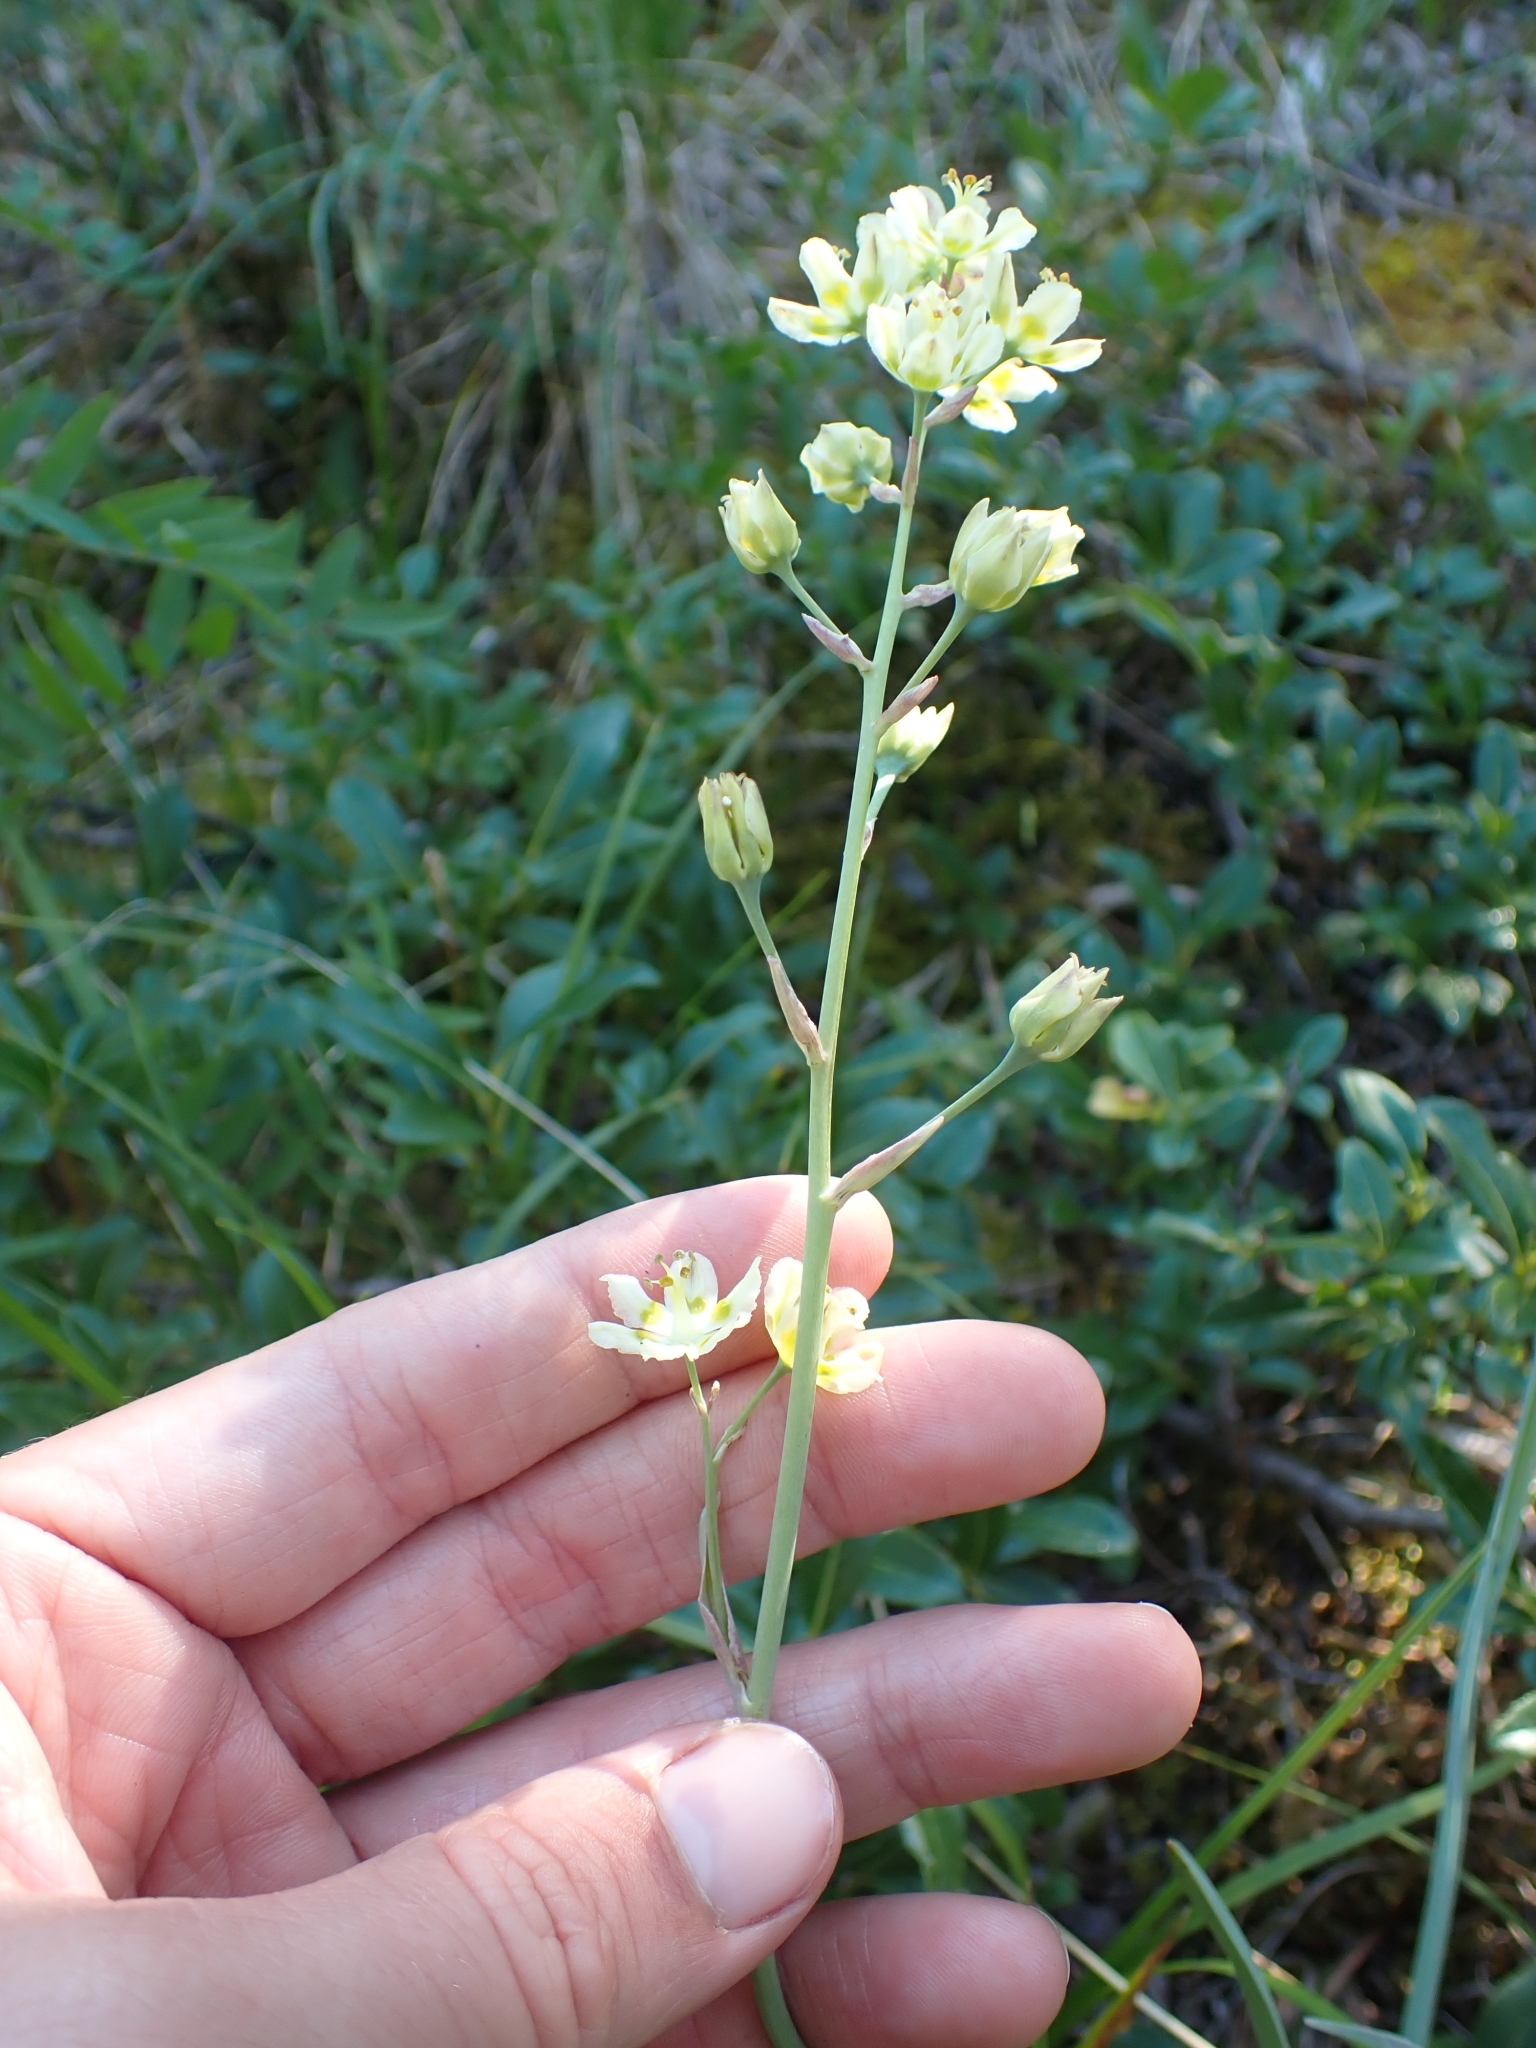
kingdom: Plantae
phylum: Tracheophyta
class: Liliopsida
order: Liliales
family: Melanthiaceae
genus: Anticlea
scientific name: Anticlea elegans
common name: Mountain death camas
